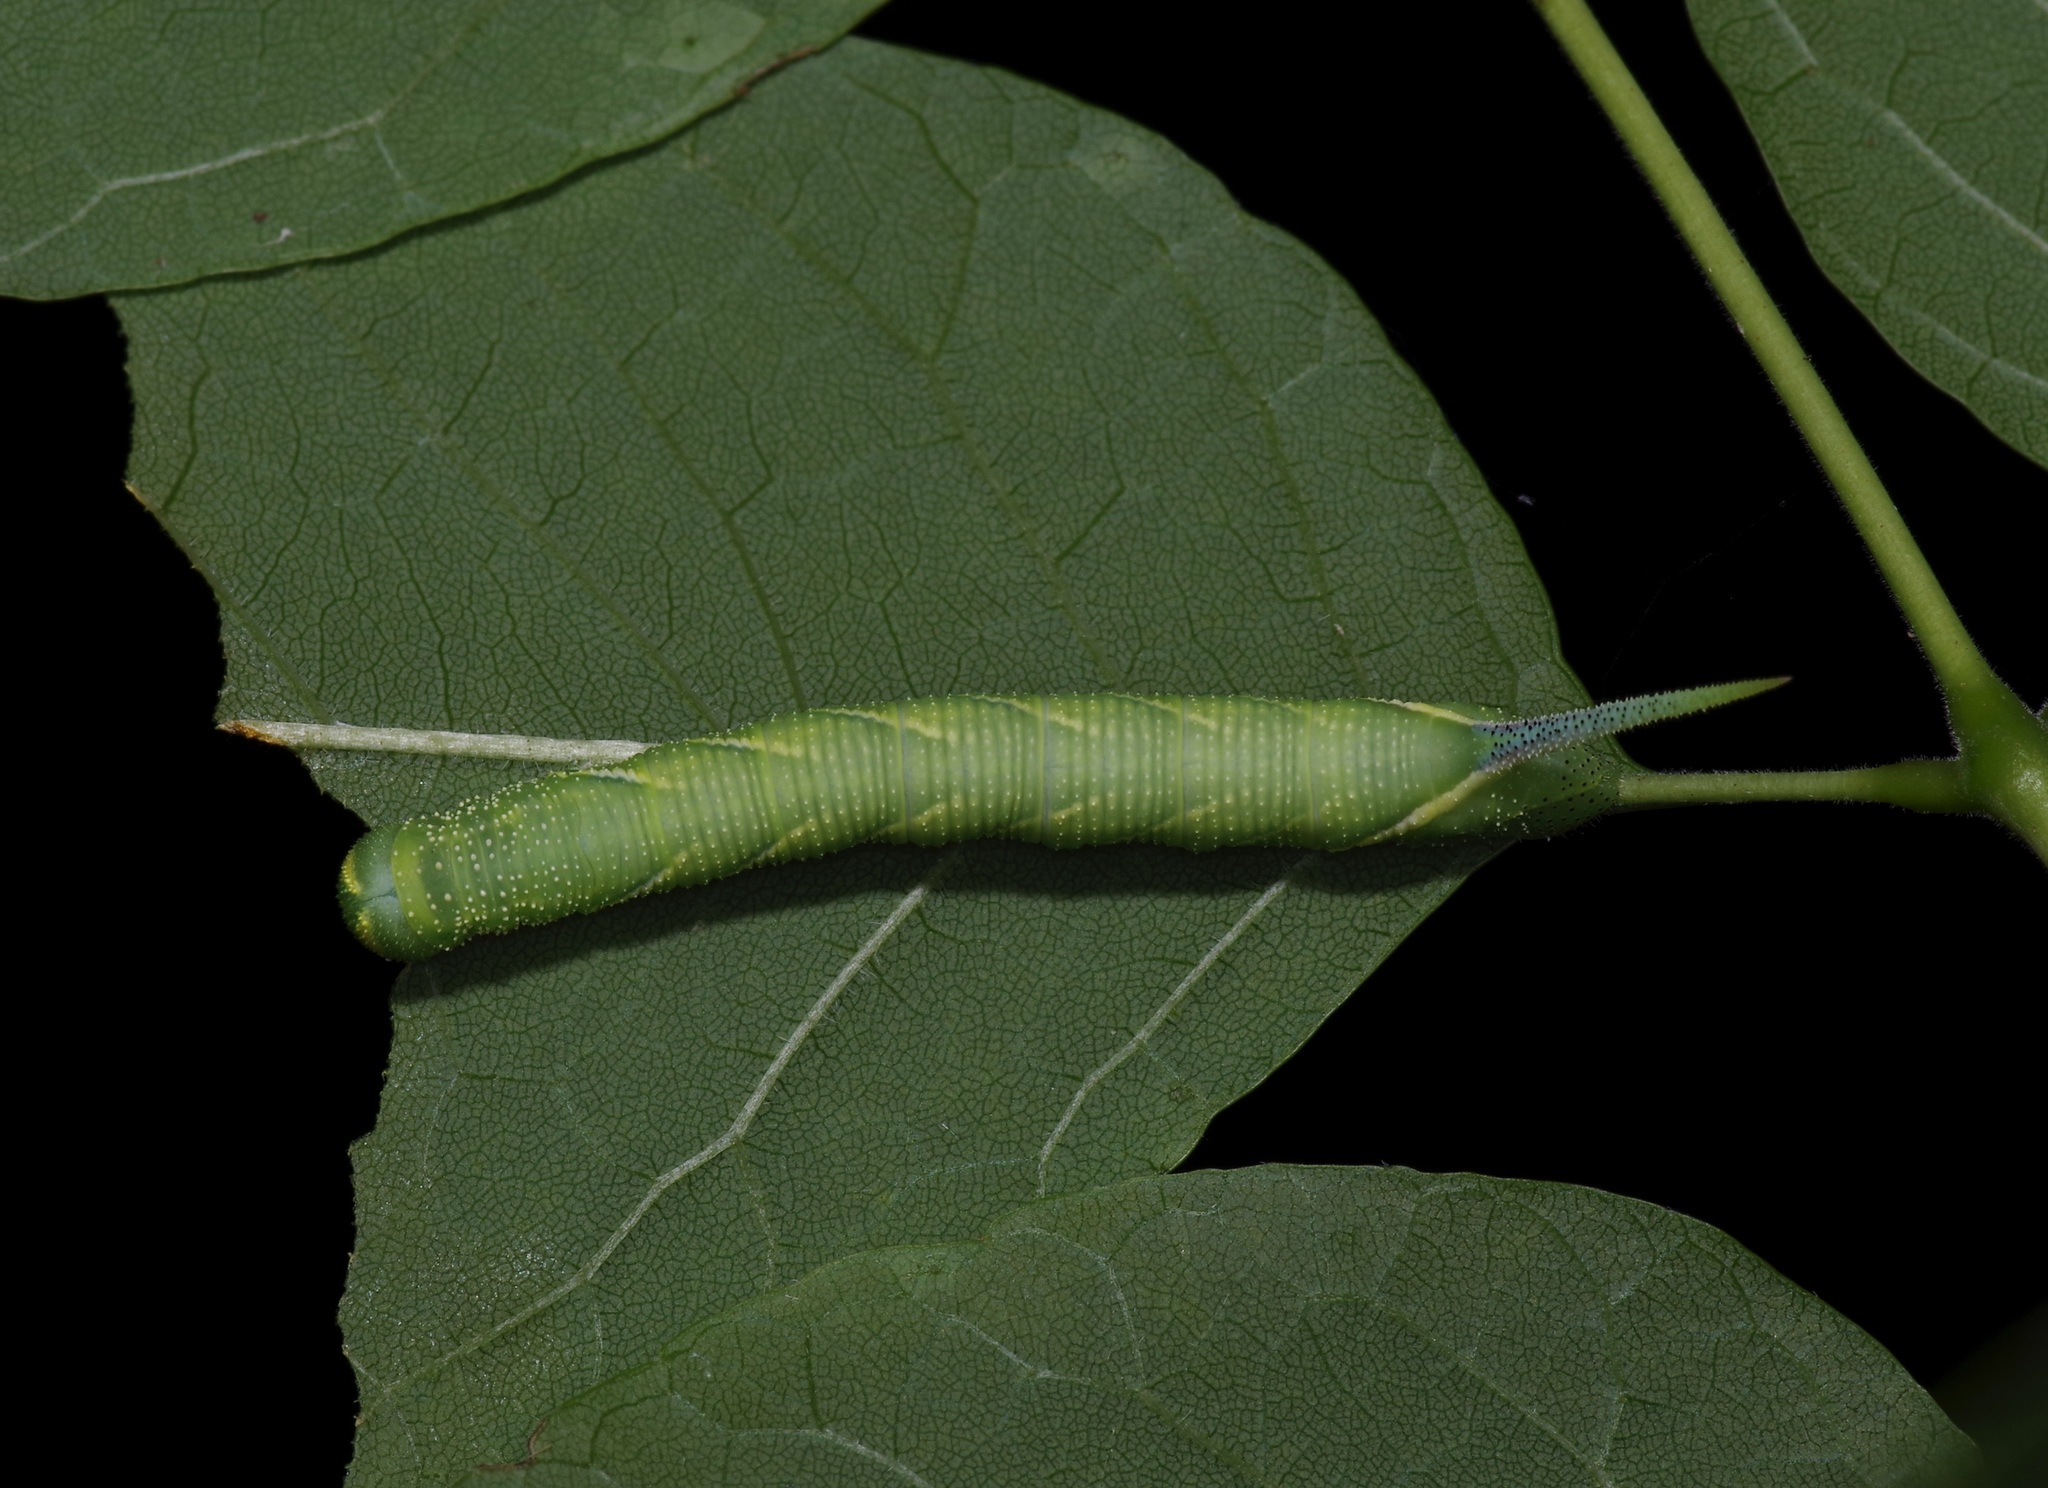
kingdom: Animalia
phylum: Arthropoda
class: Insecta
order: Lepidoptera
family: Sphingidae
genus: Ceratomia
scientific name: Ceratomia undulosa
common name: Waved sphinx
